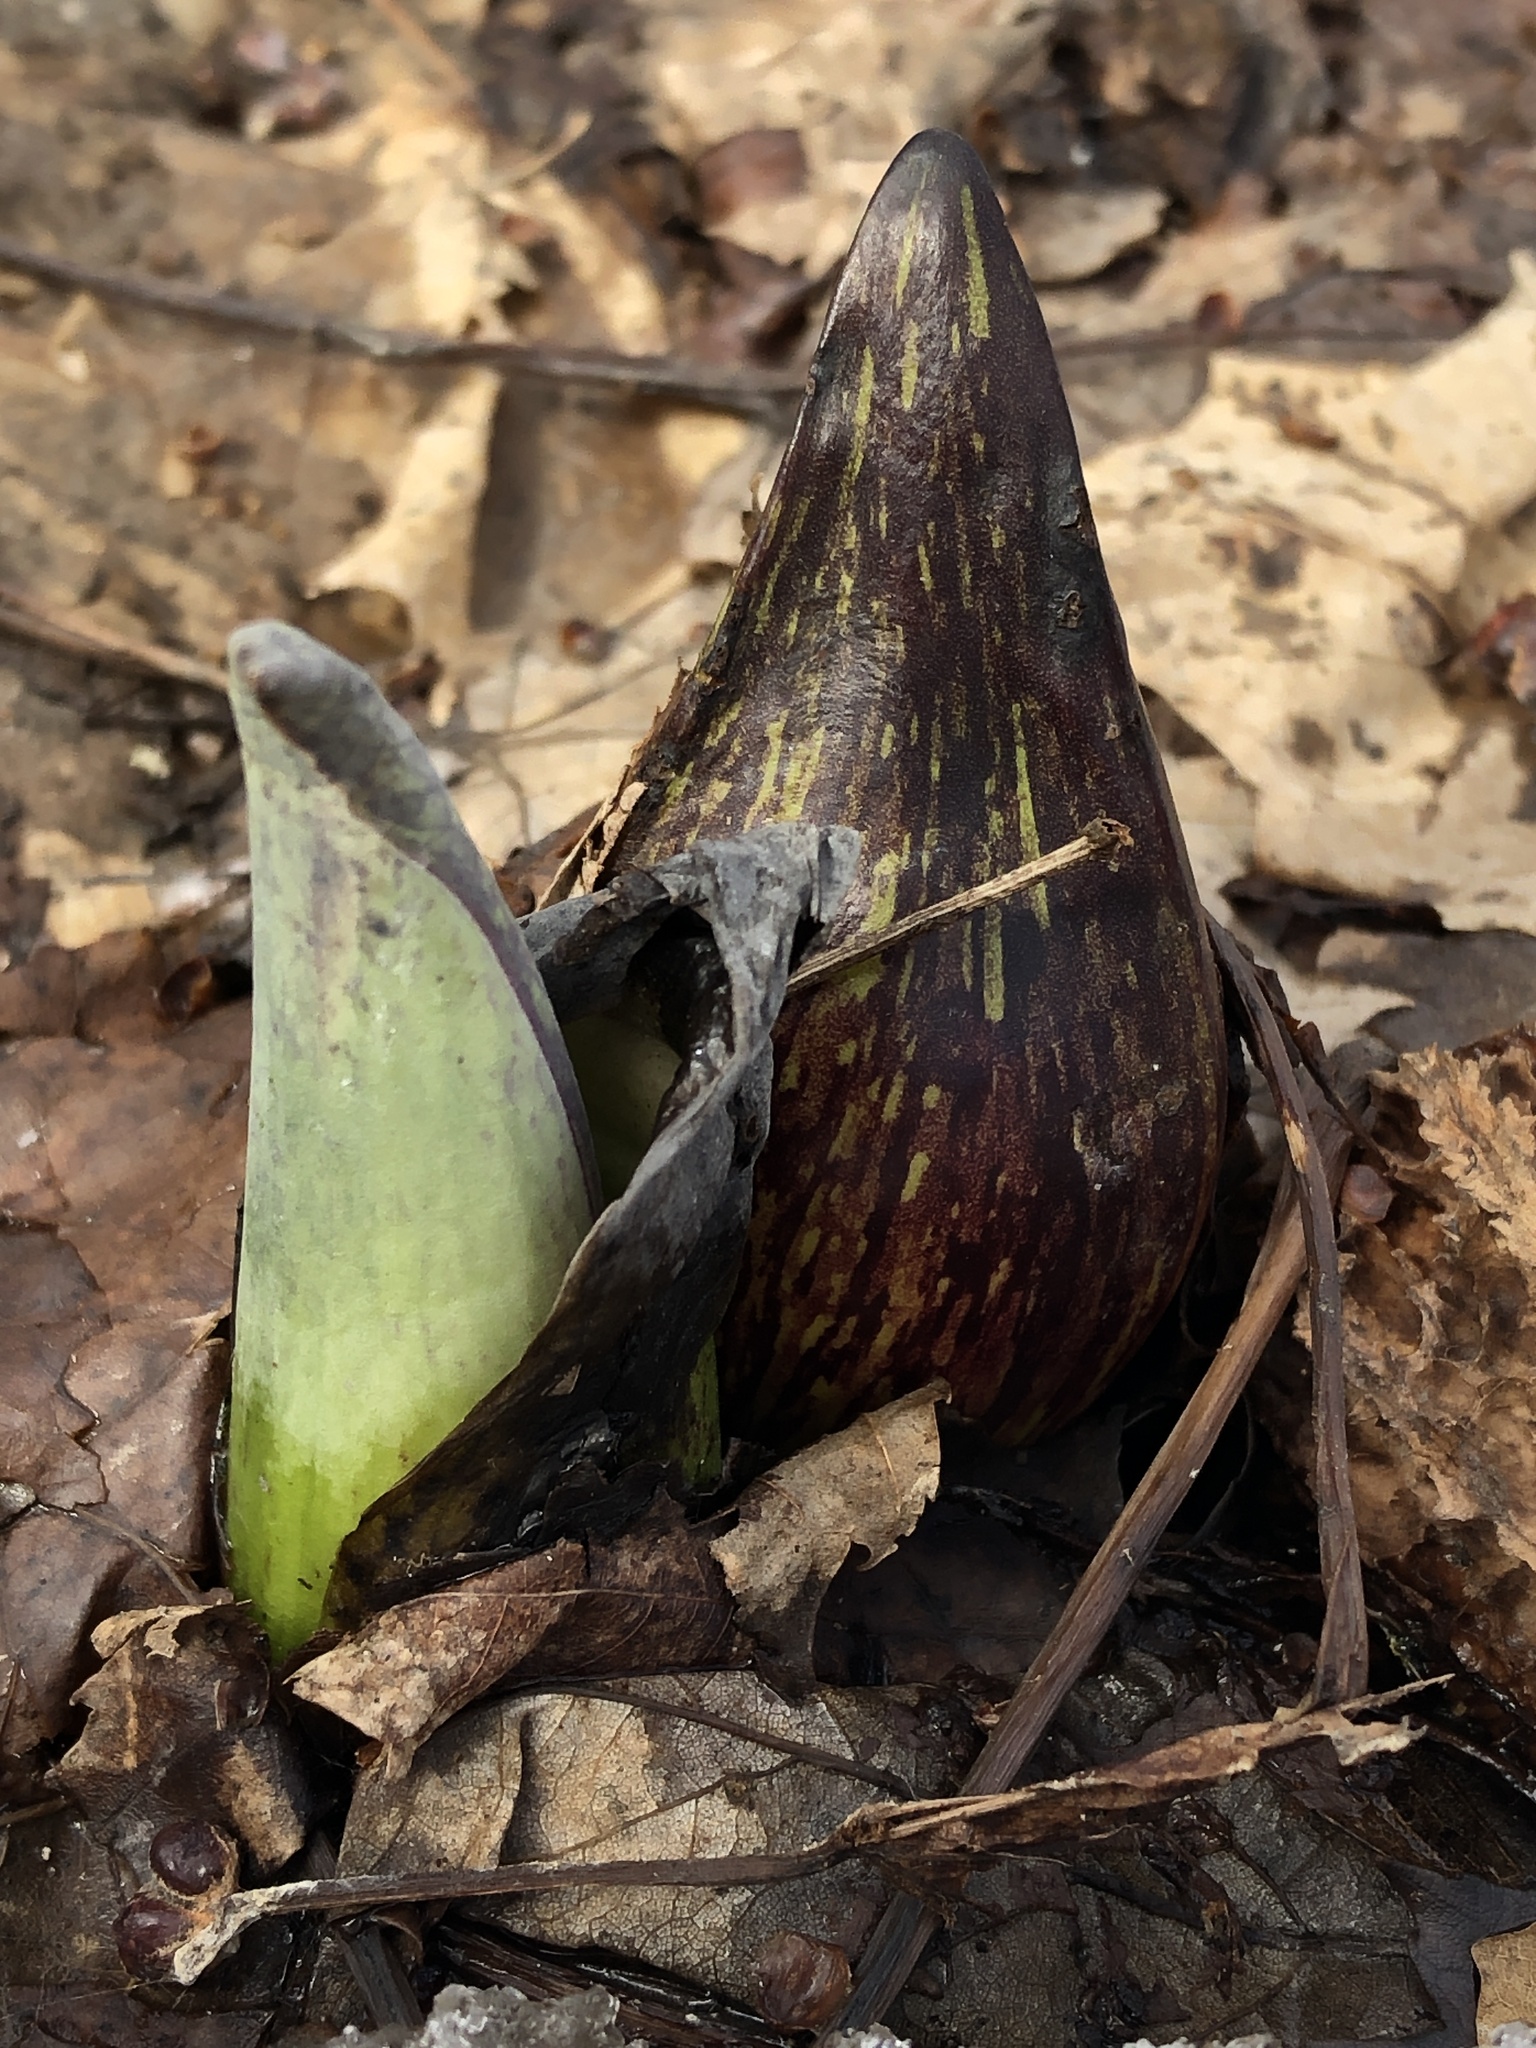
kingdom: Plantae
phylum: Tracheophyta
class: Liliopsida
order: Alismatales
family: Araceae
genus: Symplocarpus
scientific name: Symplocarpus foetidus
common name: Eastern skunk cabbage
